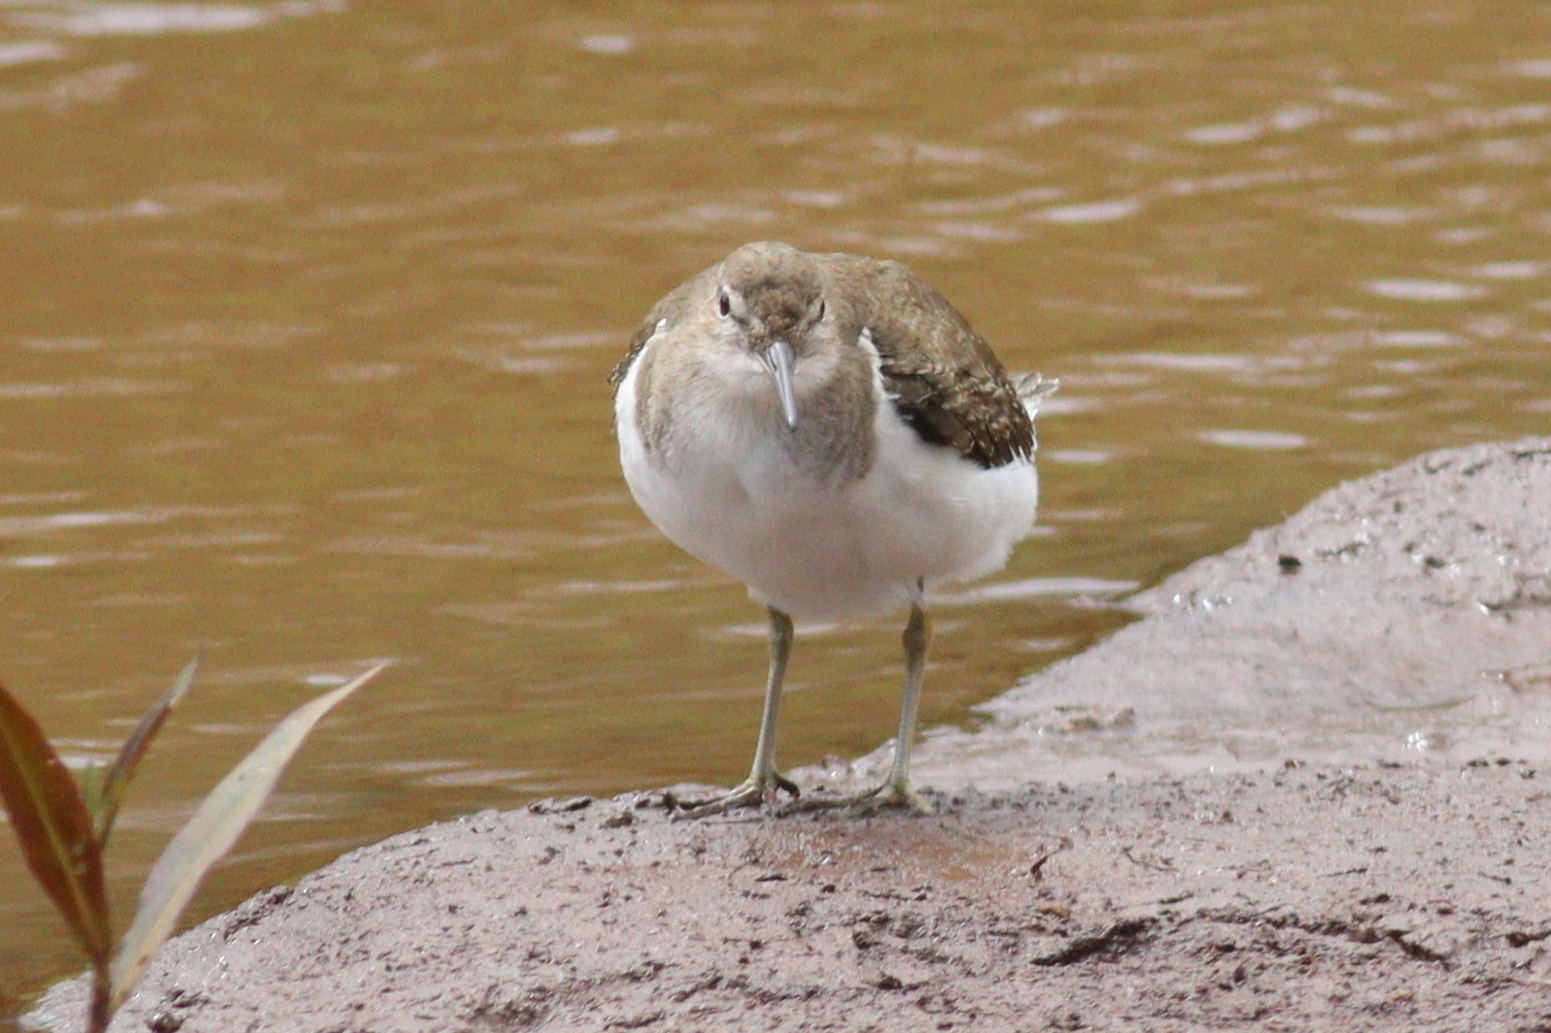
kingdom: Animalia
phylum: Chordata
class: Aves
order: Charadriiformes
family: Scolopacidae
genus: Actitis
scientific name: Actitis hypoleucos
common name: Common sandpiper
